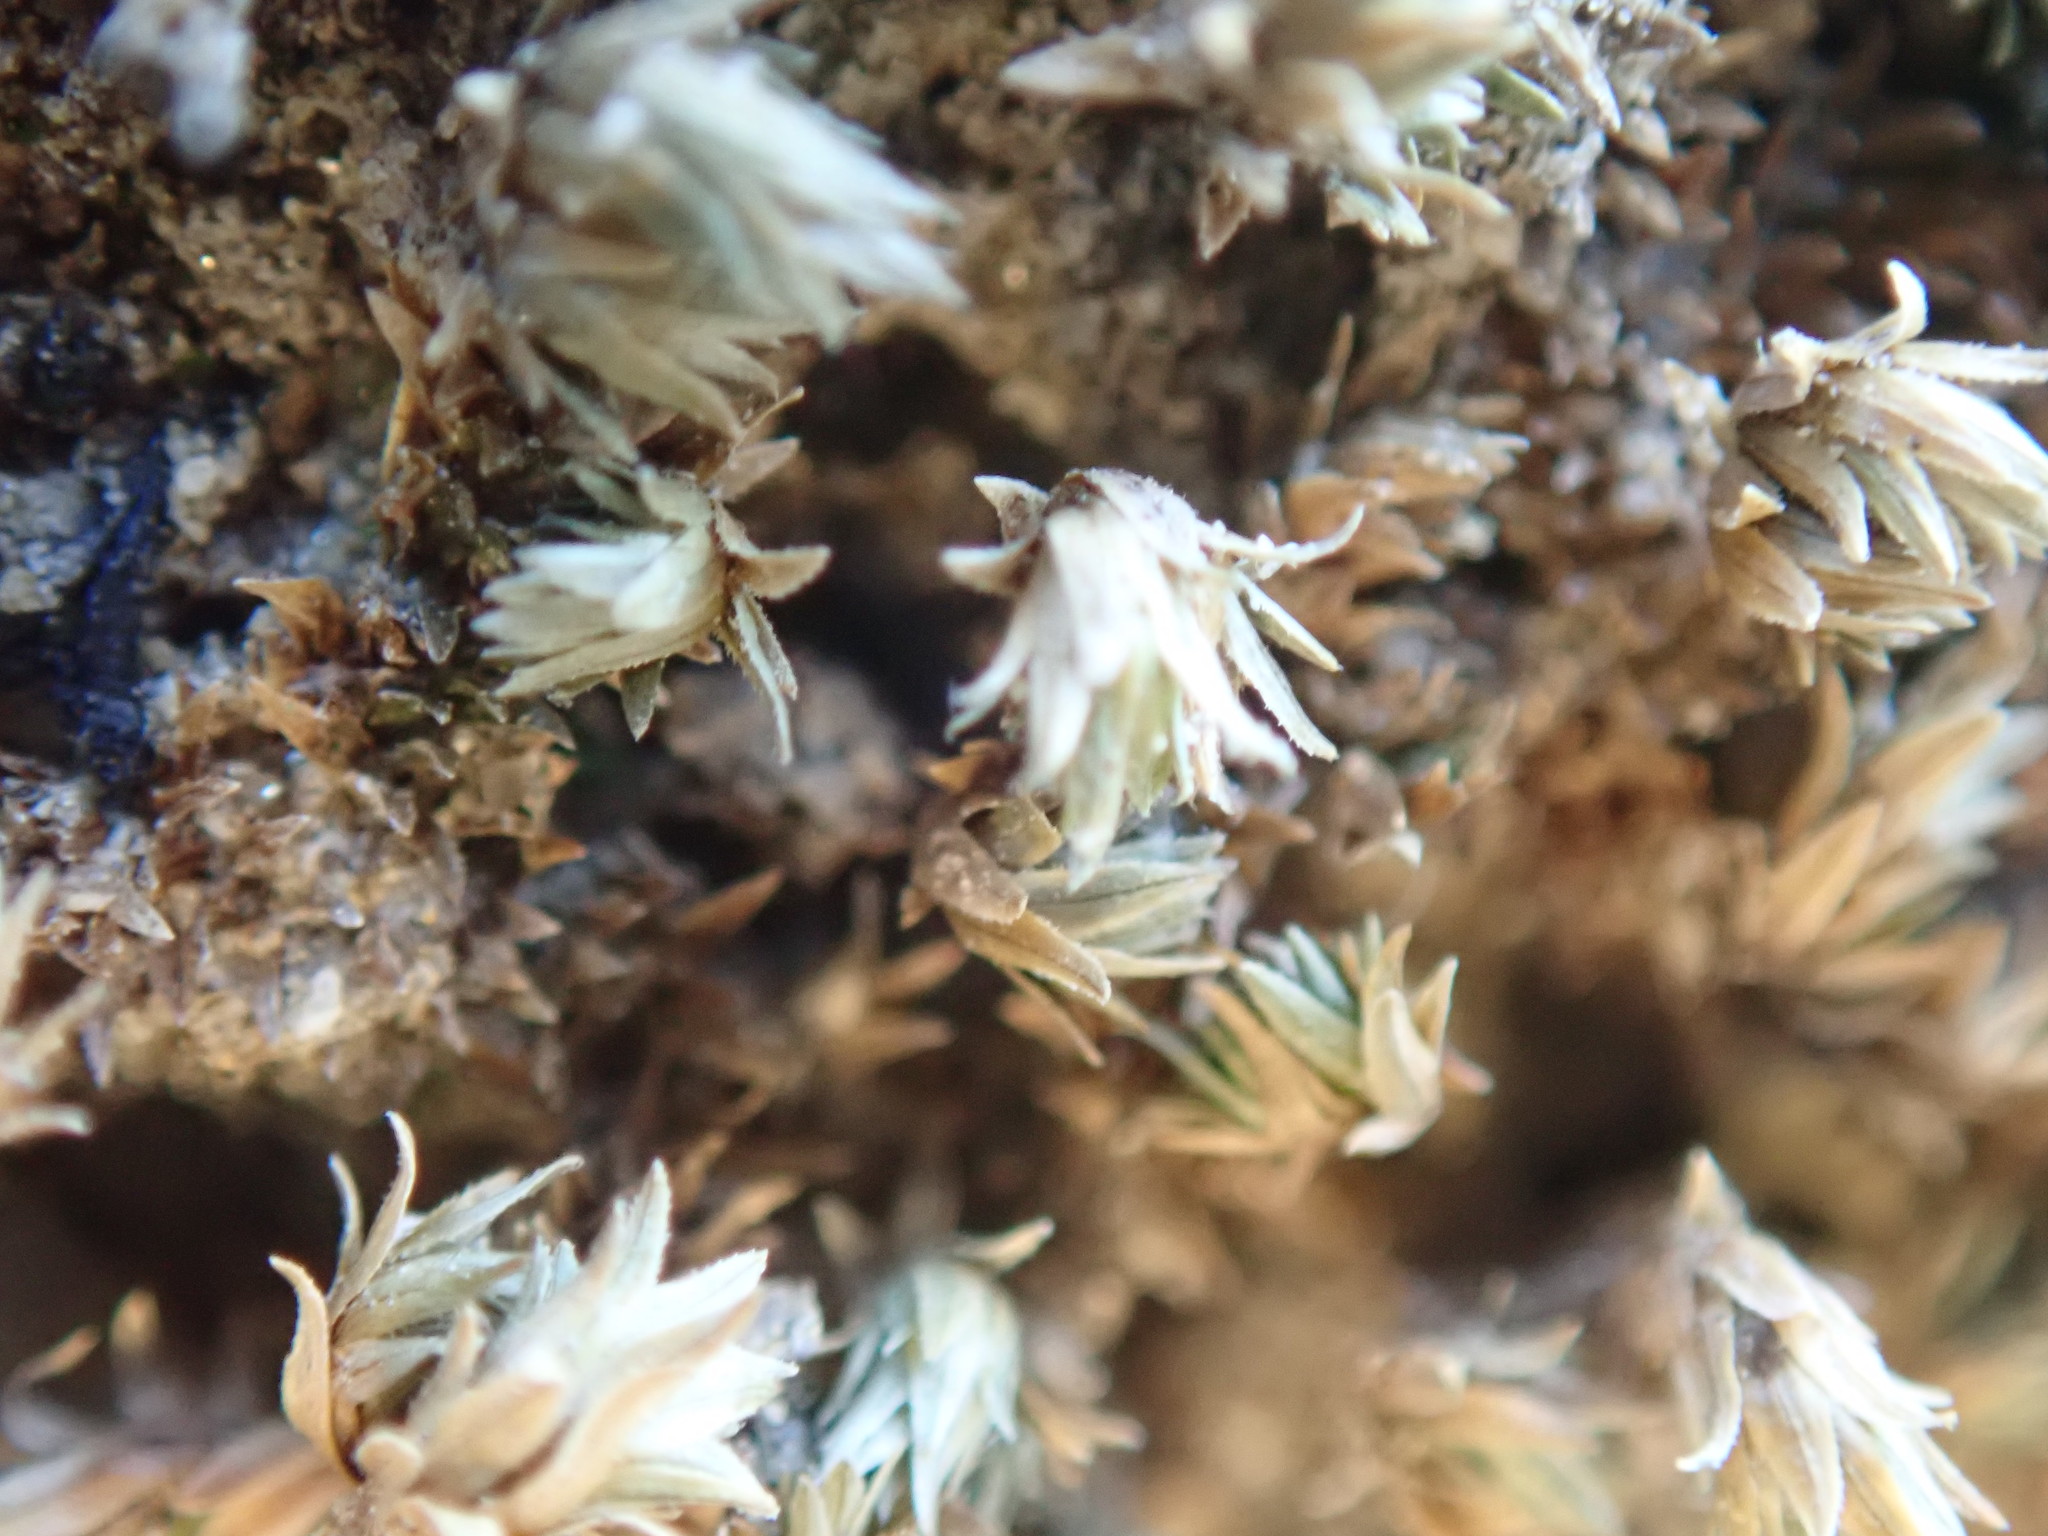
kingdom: Plantae
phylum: Tracheophyta
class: Lycopodiopsida
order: Selaginellales
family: Selaginellaceae
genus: Selaginella
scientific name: Selaginella eremophila
